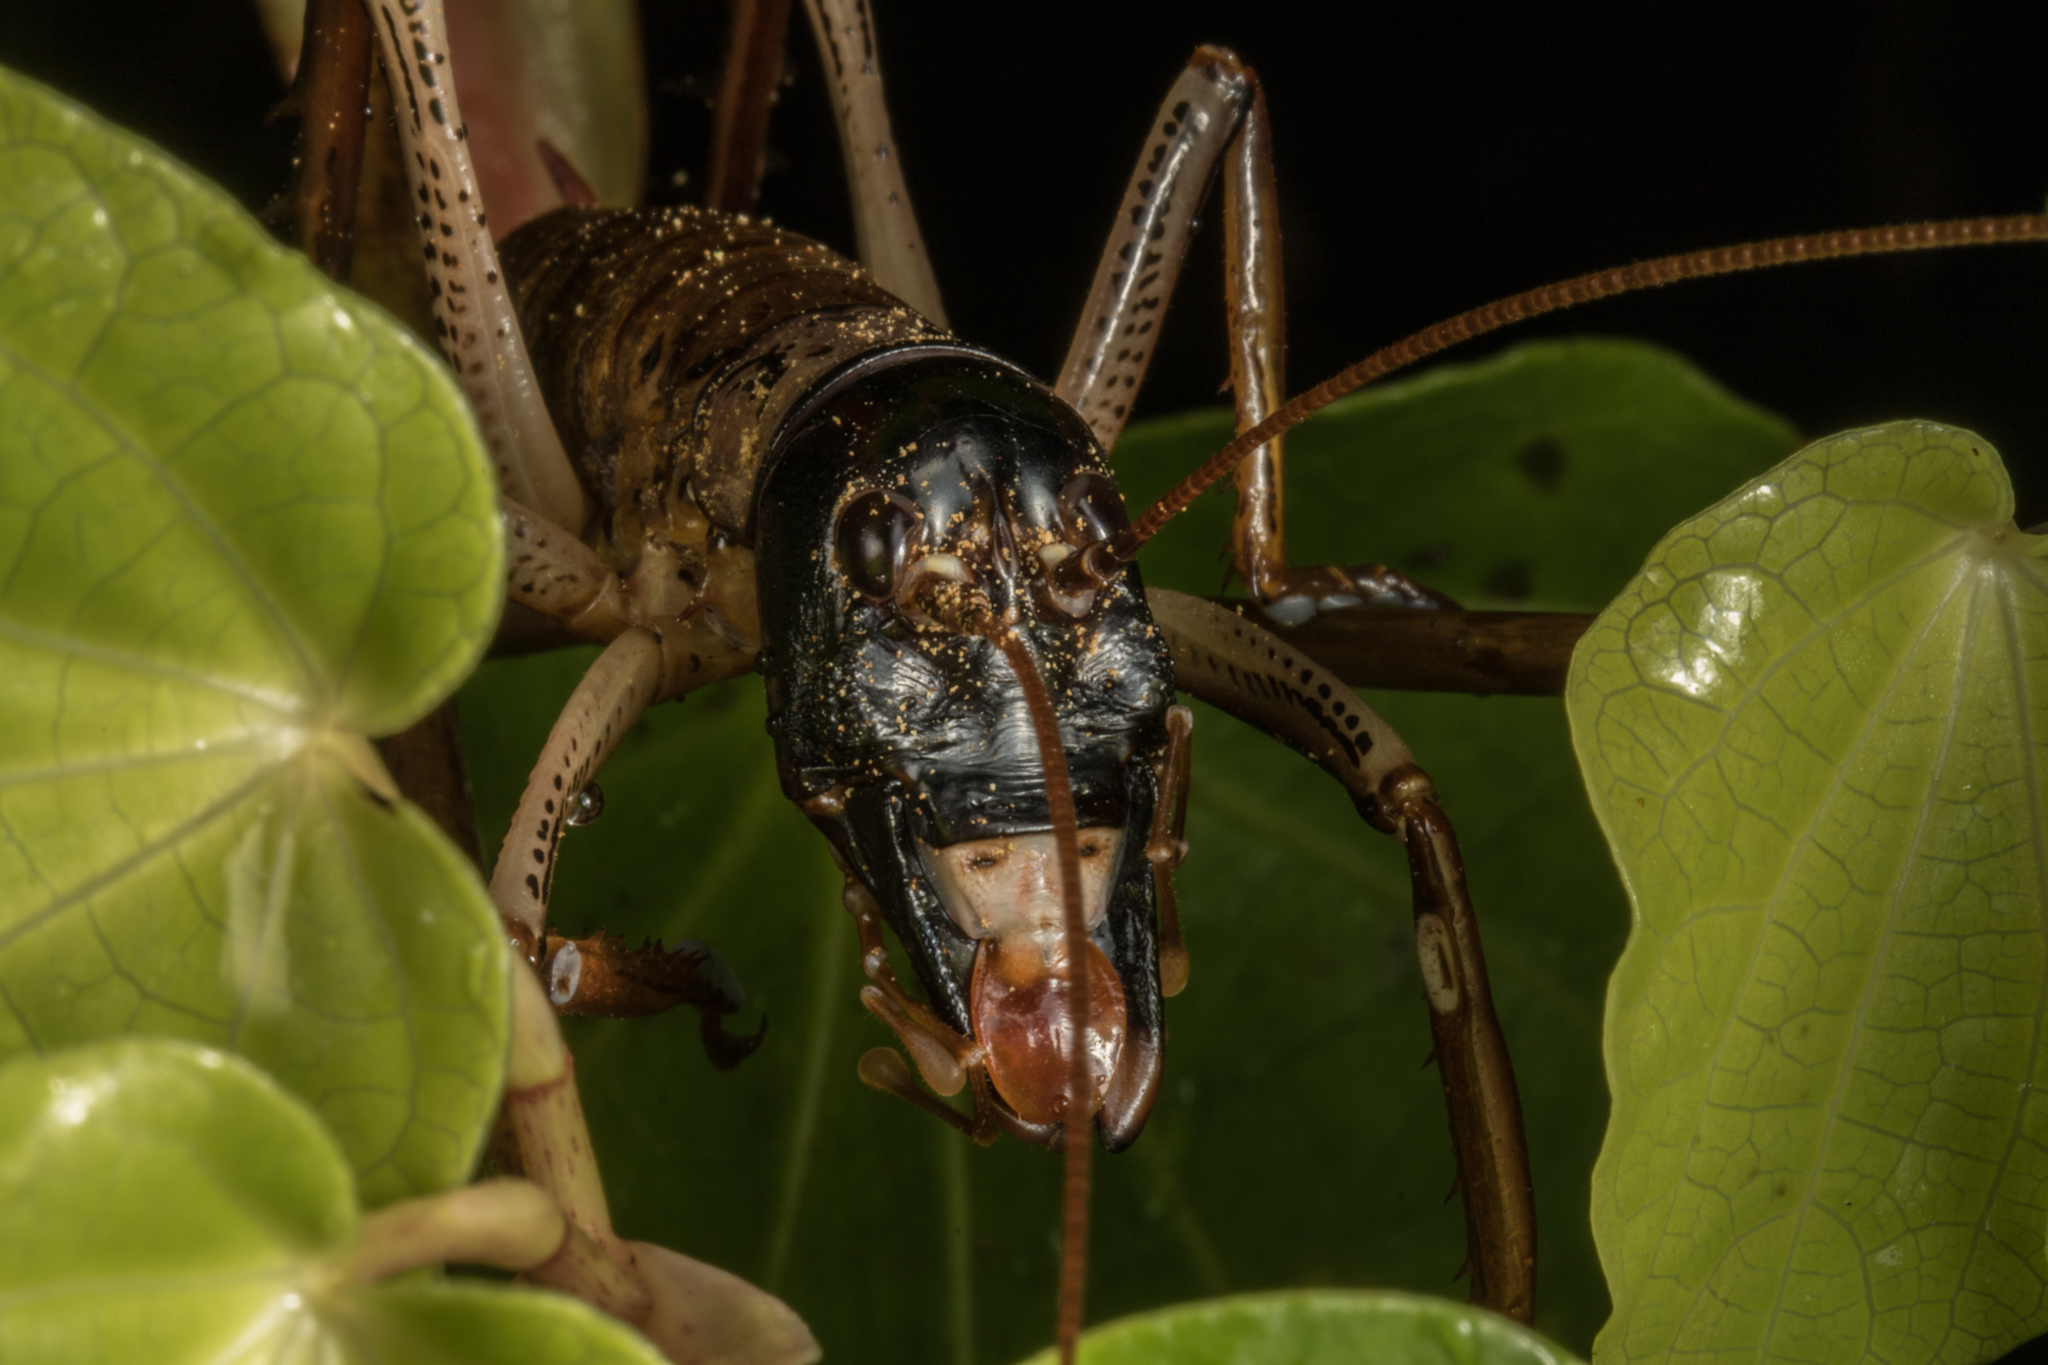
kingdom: Animalia
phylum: Arthropoda
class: Insecta
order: Orthoptera
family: Anostostomatidae
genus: Hemideina
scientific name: Hemideina thoracica
